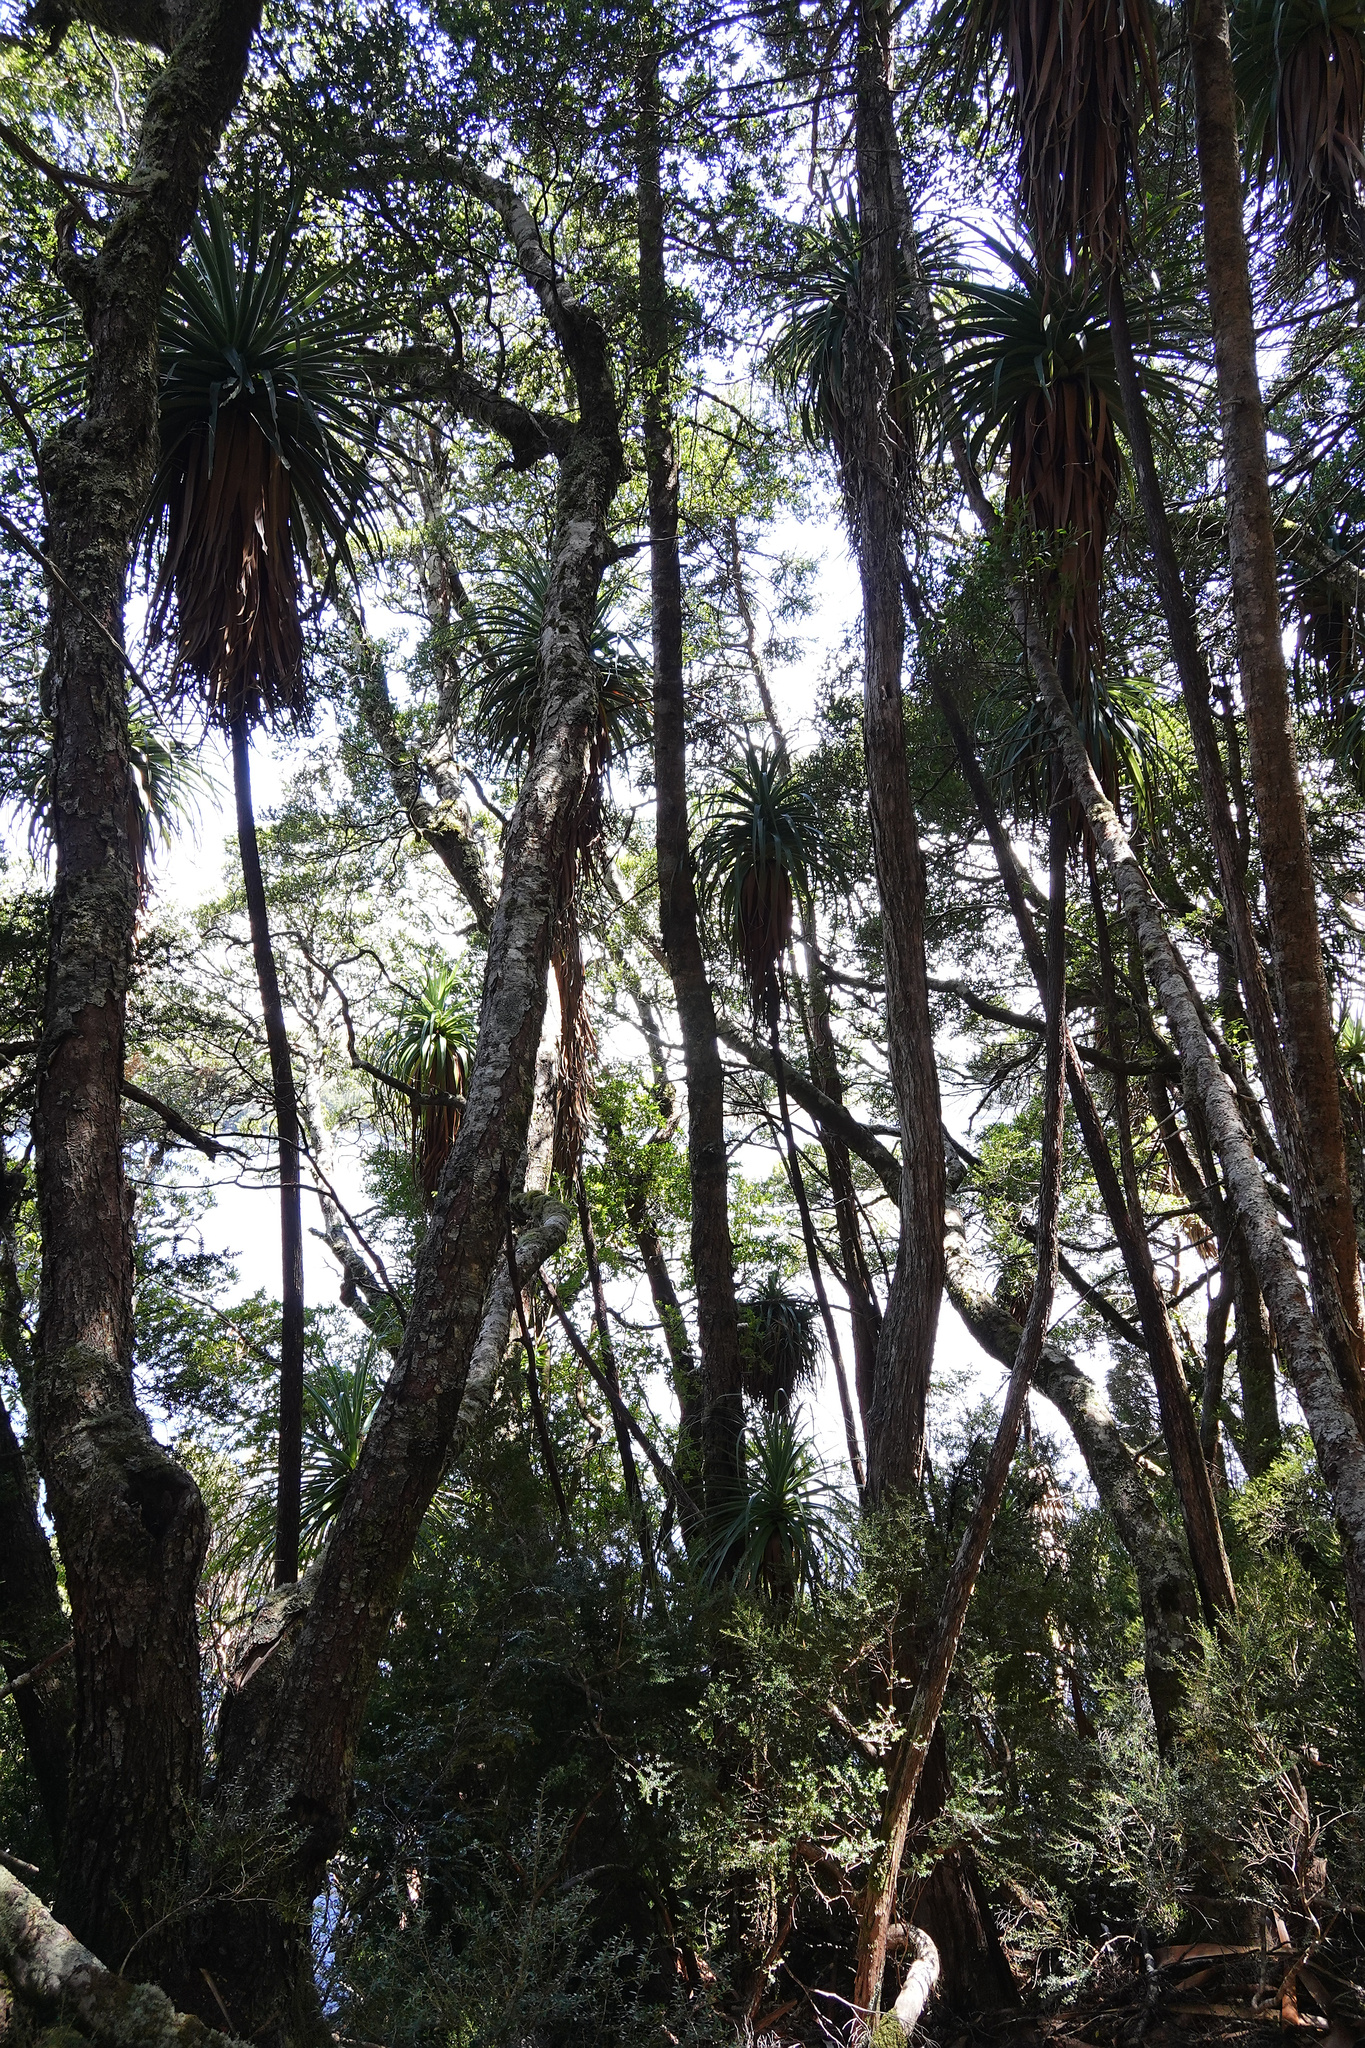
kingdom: Plantae
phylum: Tracheophyta
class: Magnoliopsida
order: Ericales
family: Ericaceae
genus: Dracophyllum
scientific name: Dracophyllum pandanifolium
